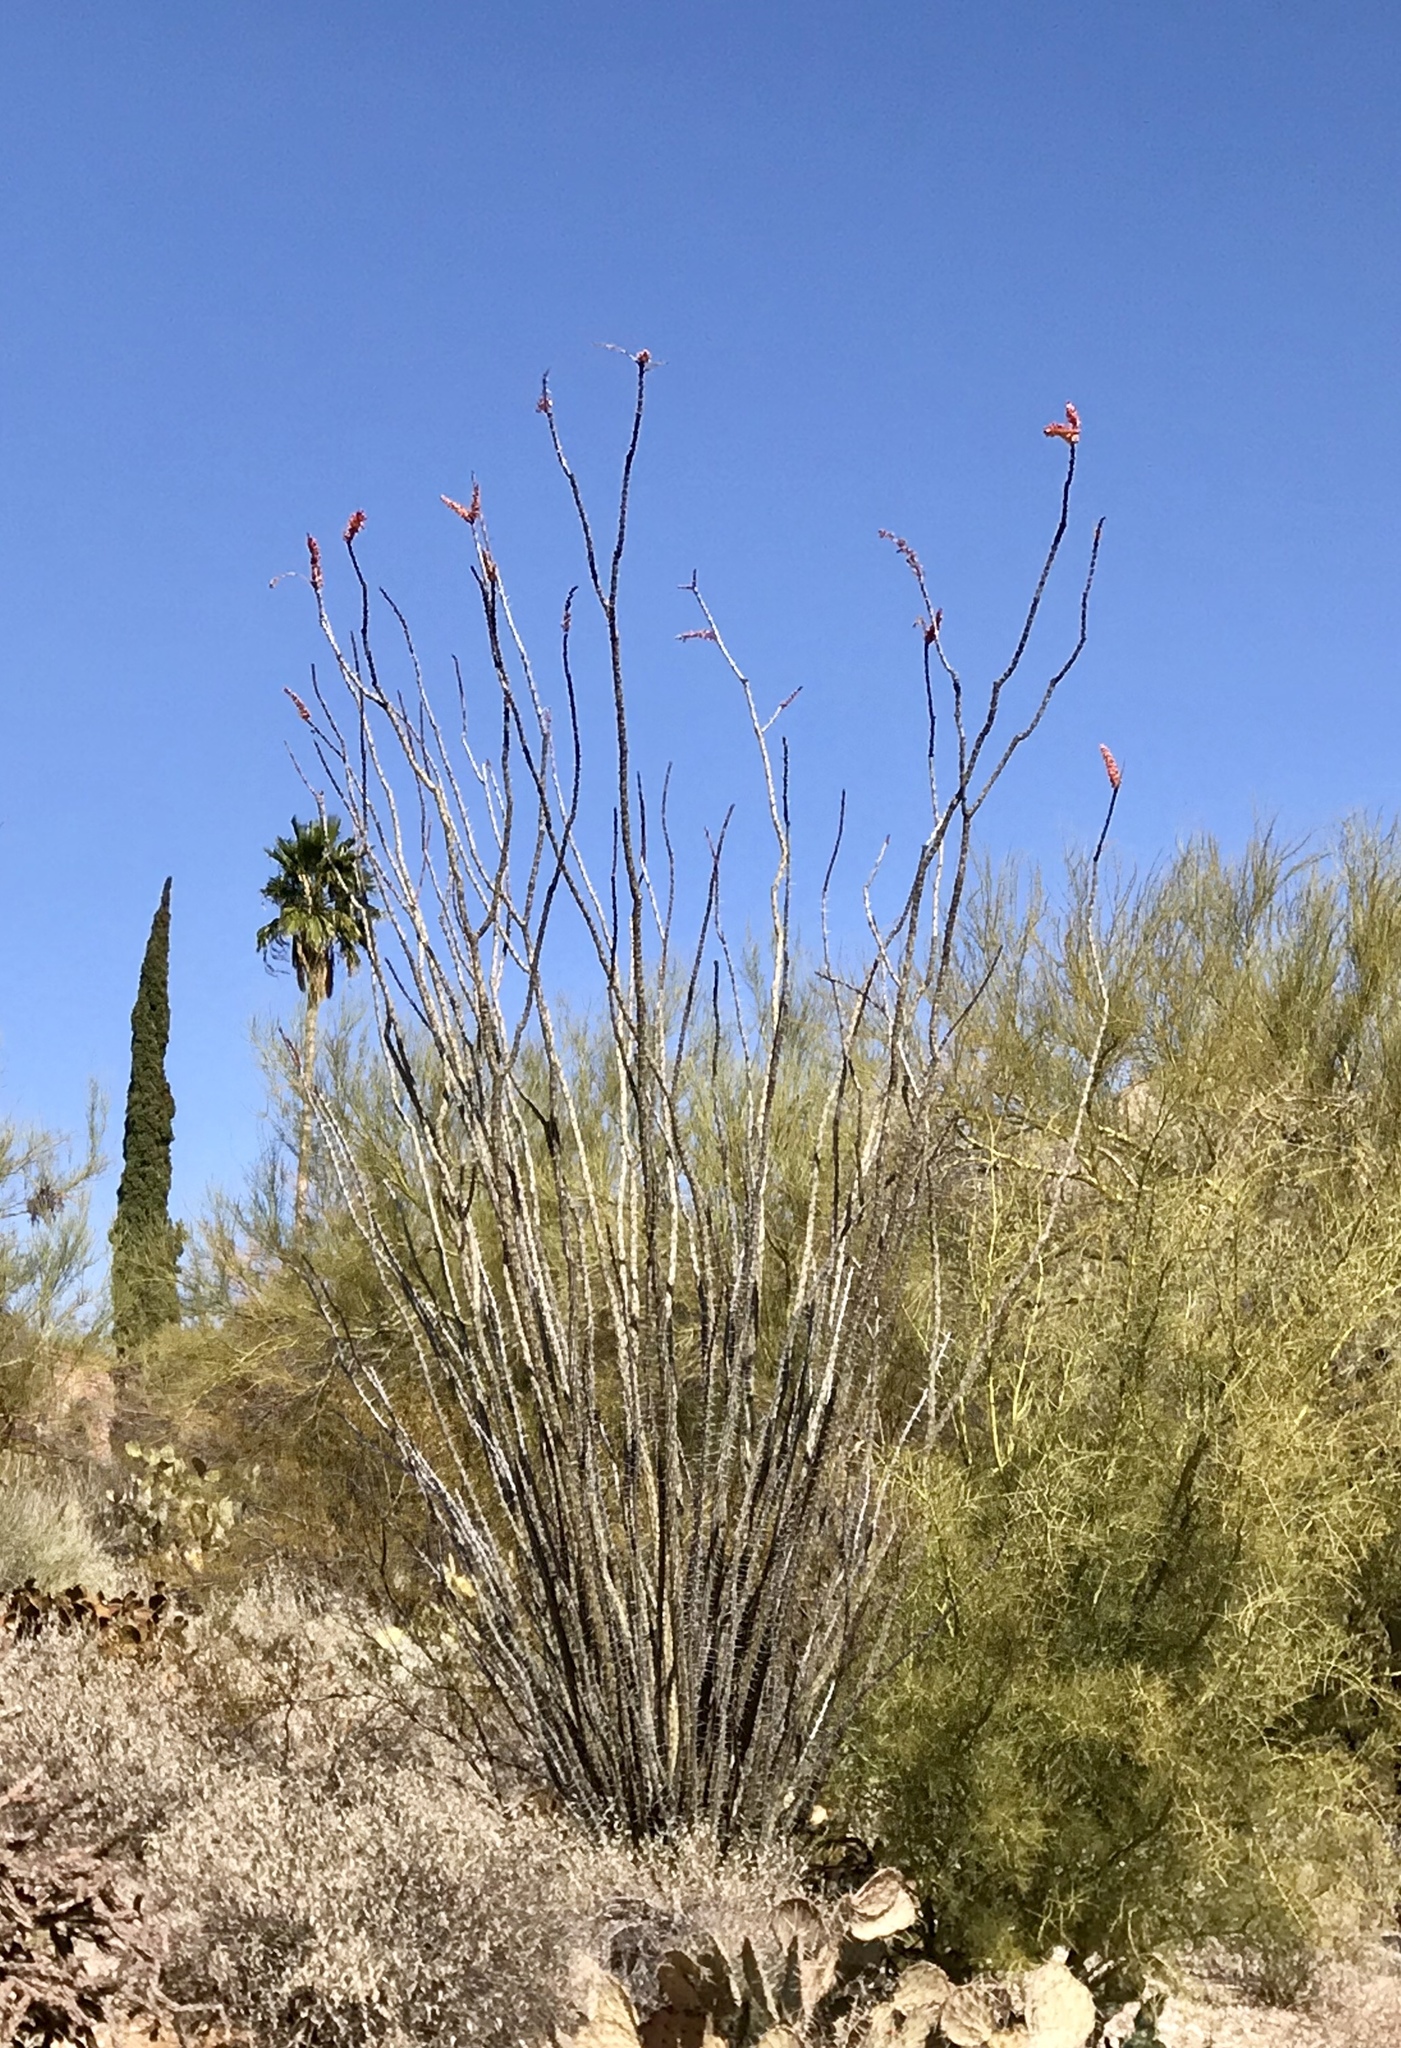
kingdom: Plantae
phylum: Tracheophyta
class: Magnoliopsida
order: Ericales
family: Fouquieriaceae
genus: Fouquieria
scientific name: Fouquieria splendens
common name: Vine-cactus
